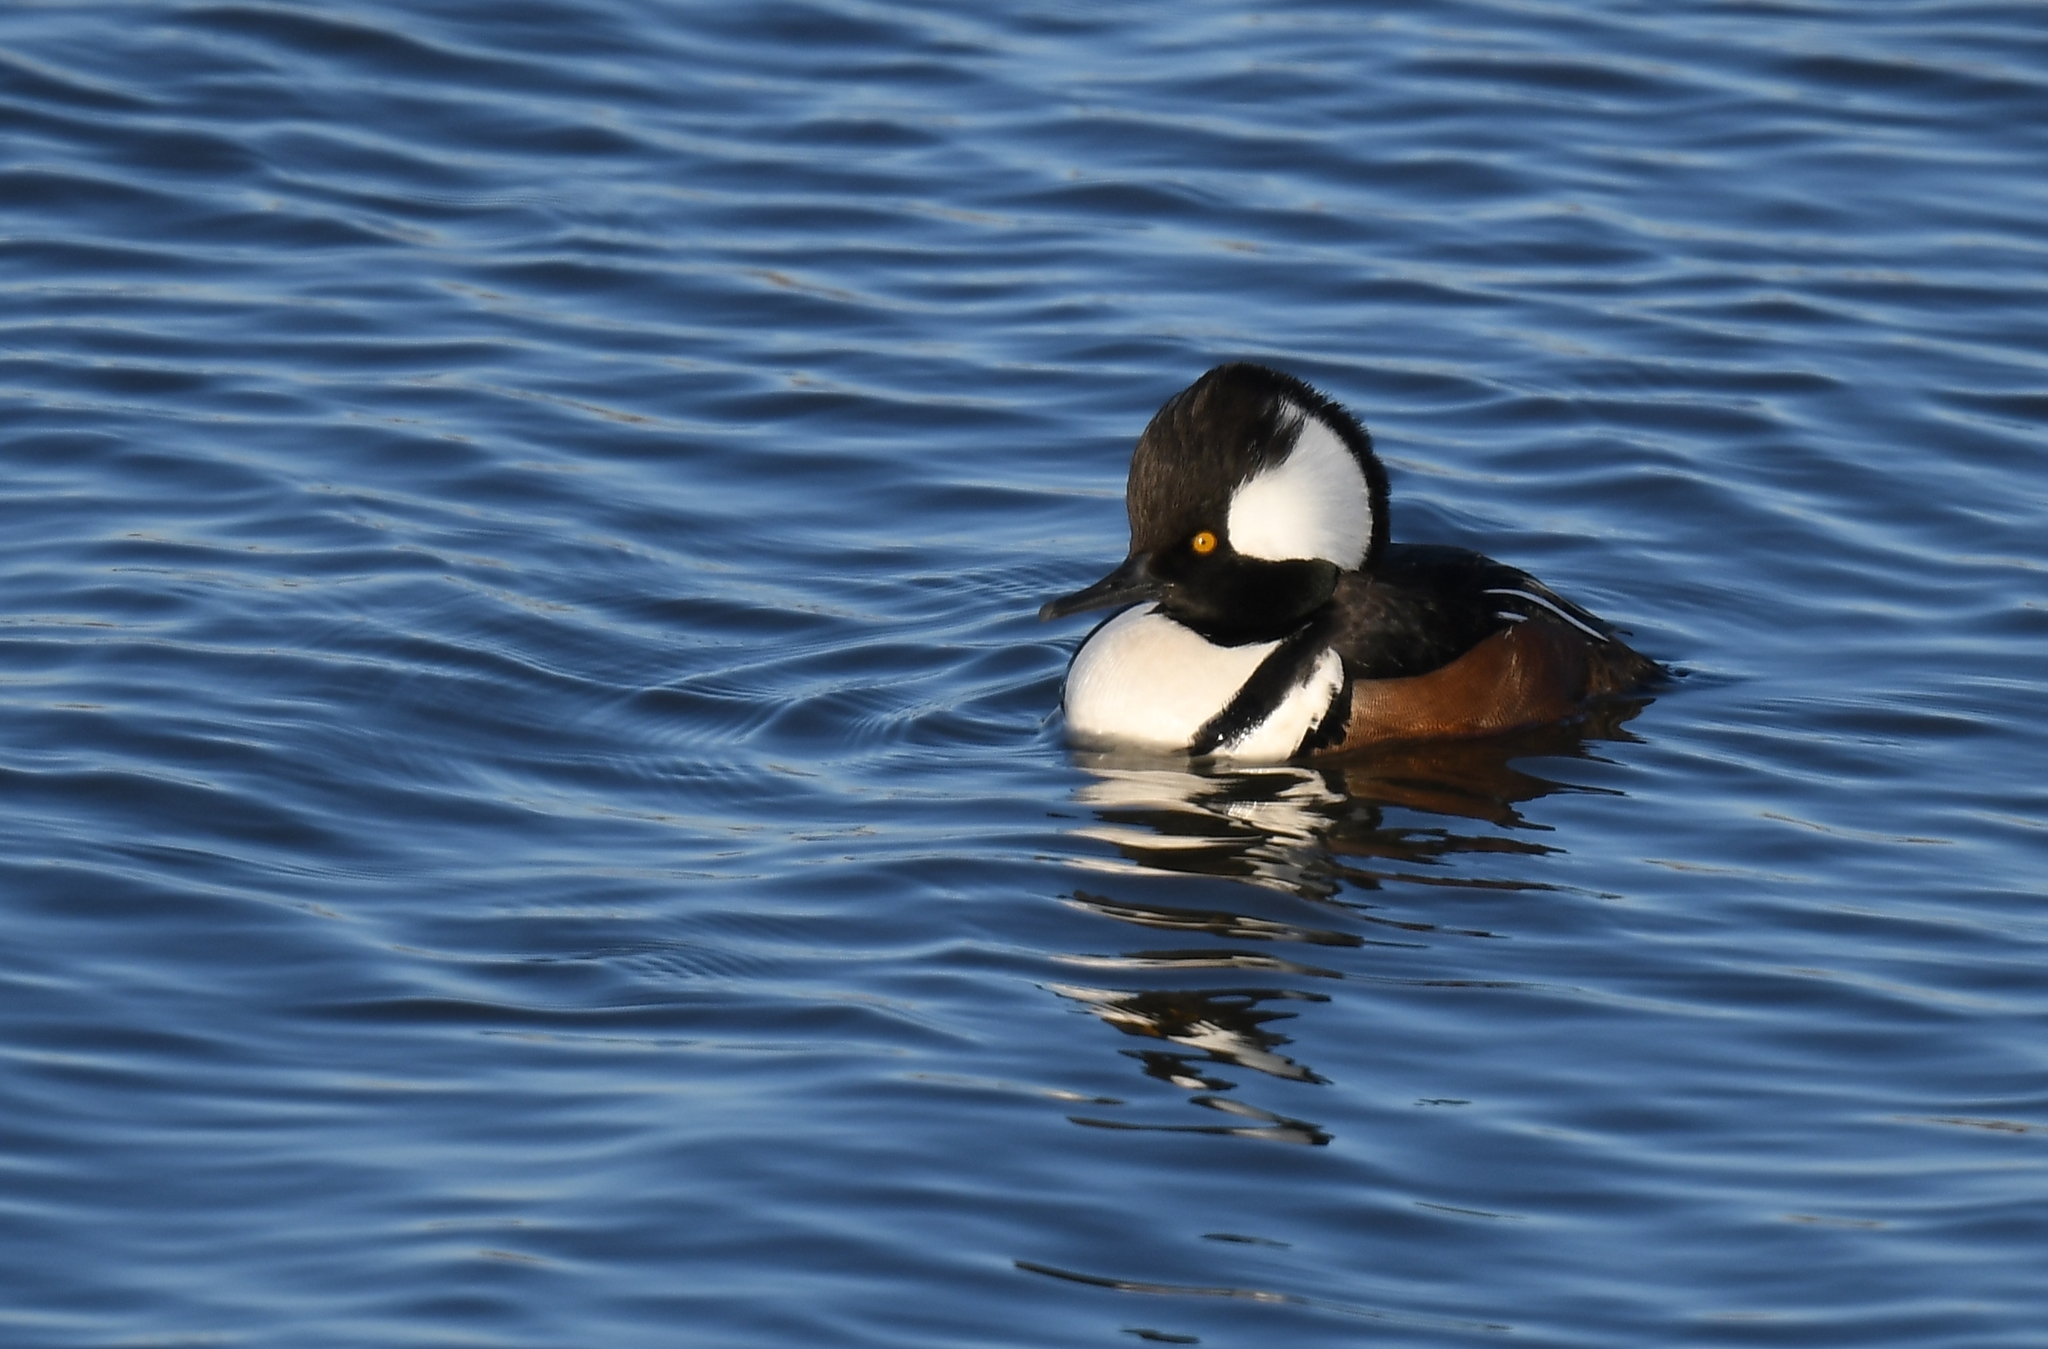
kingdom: Animalia
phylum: Chordata
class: Aves
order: Anseriformes
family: Anatidae
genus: Lophodytes
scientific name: Lophodytes cucullatus
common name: Hooded merganser
